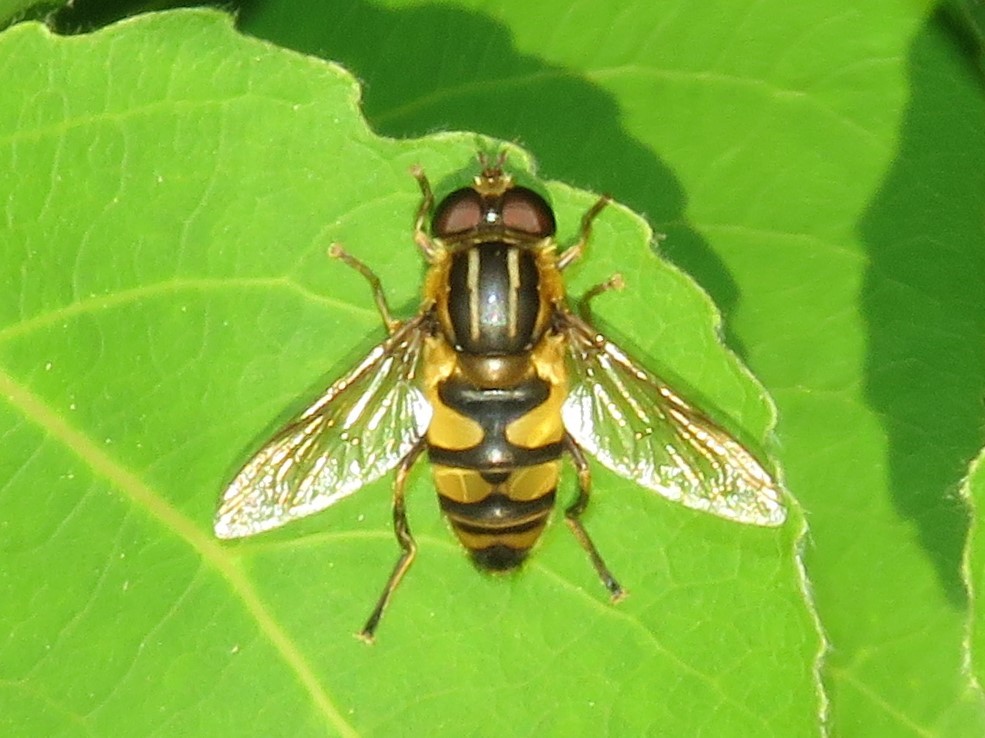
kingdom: Animalia
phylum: Arthropoda
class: Insecta
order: Diptera
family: Syrphidae
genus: Helophilus
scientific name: Helophilus fasciatus
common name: Narrow-headed marsh fly
